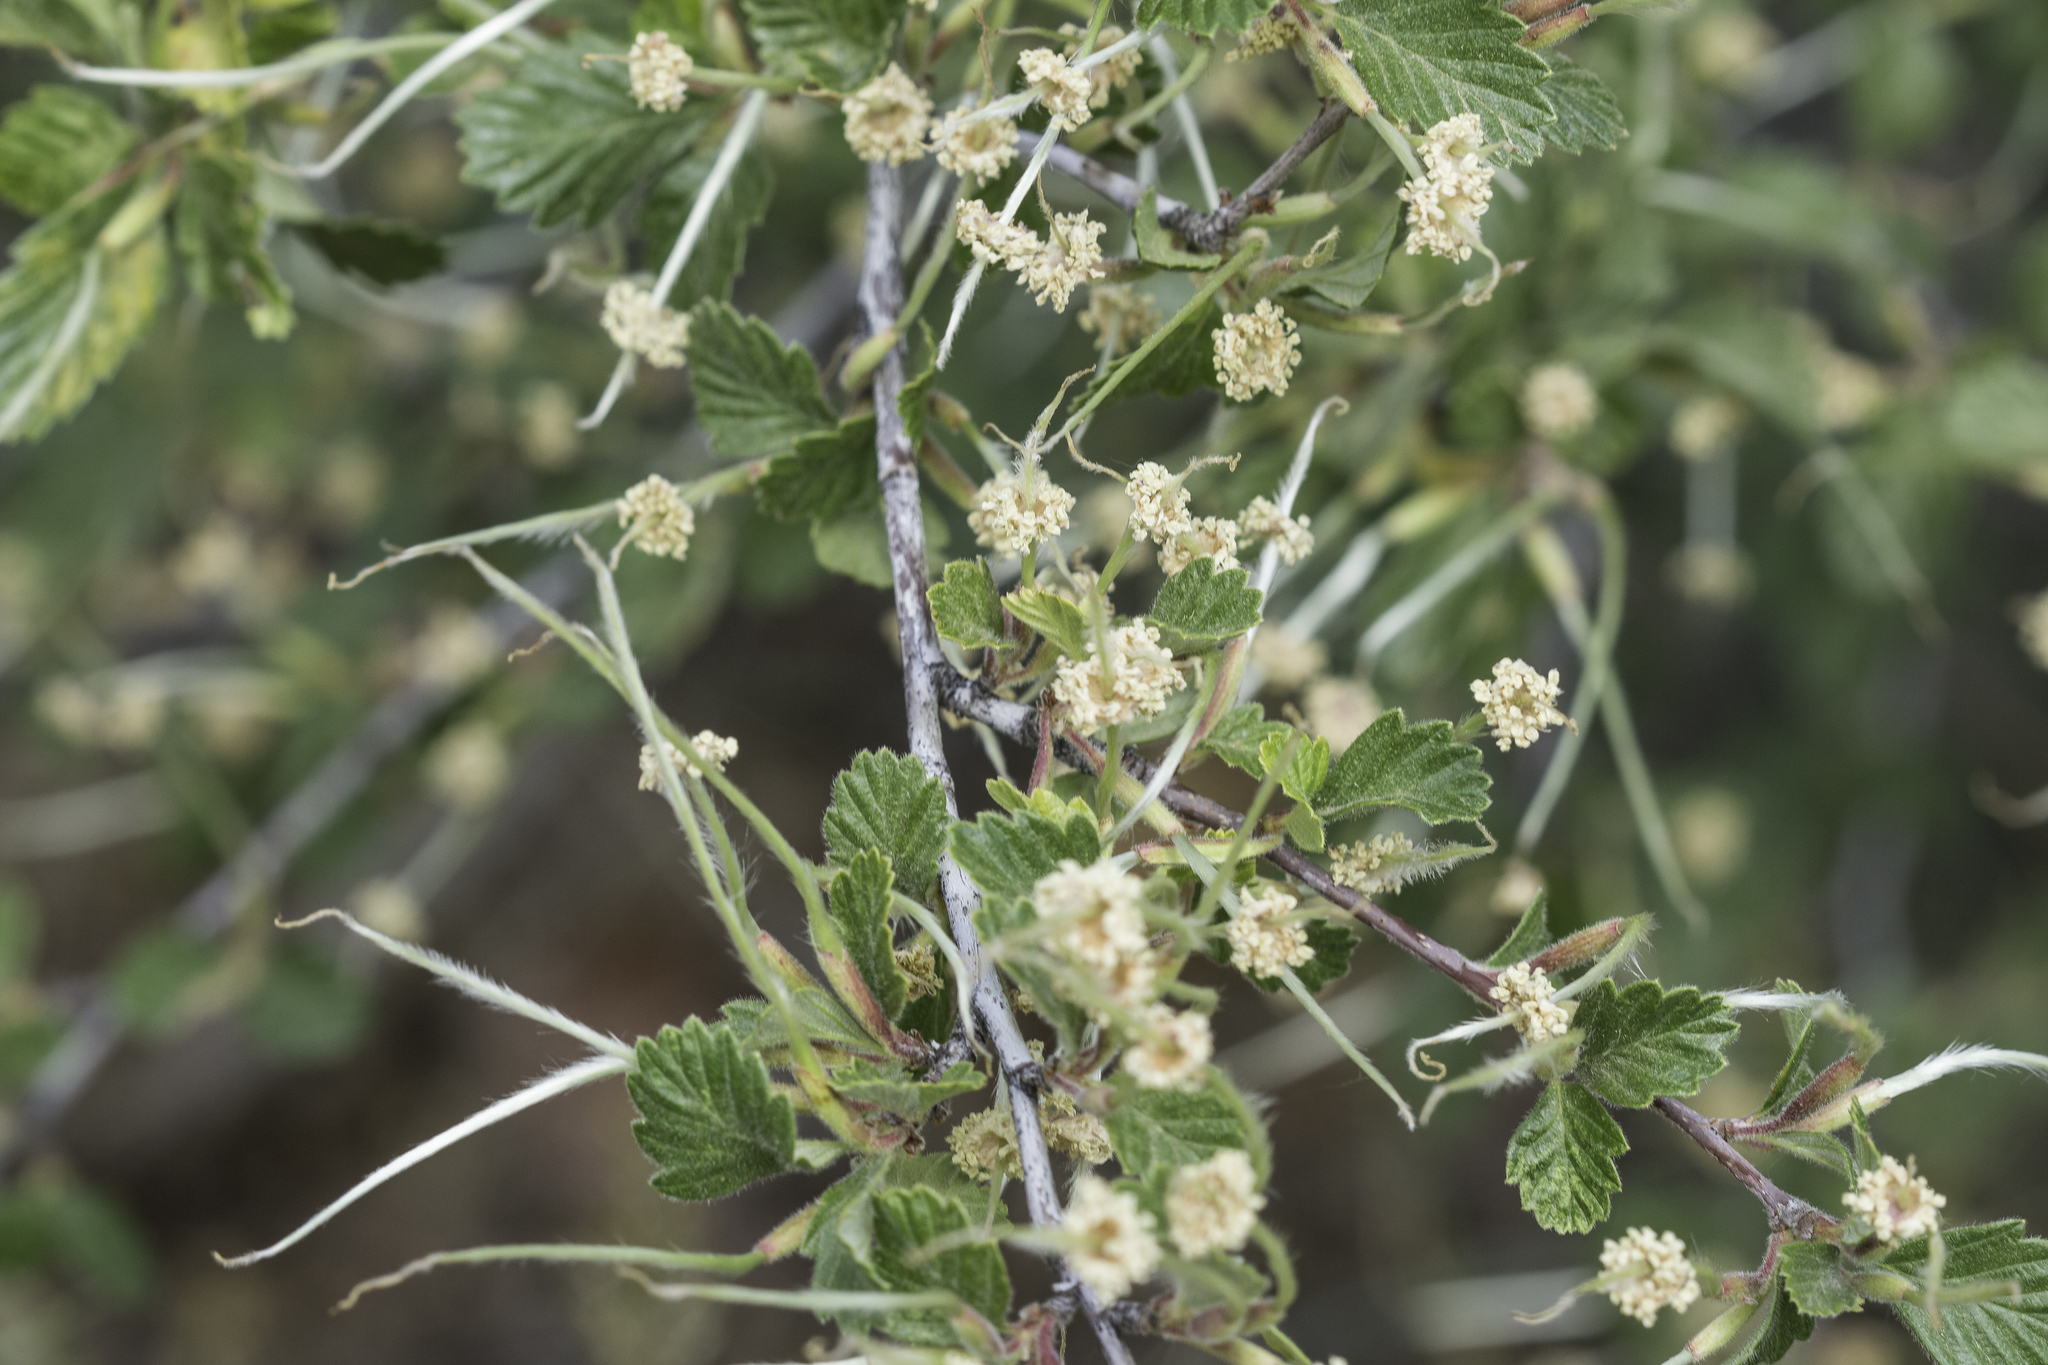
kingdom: Plantae
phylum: Tracheophyta
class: Magnoliopsida
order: Rosales
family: Rosaceae
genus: Cercocarpus
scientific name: Cercocarpus montanus
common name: Alder-leaf cercocarpus
